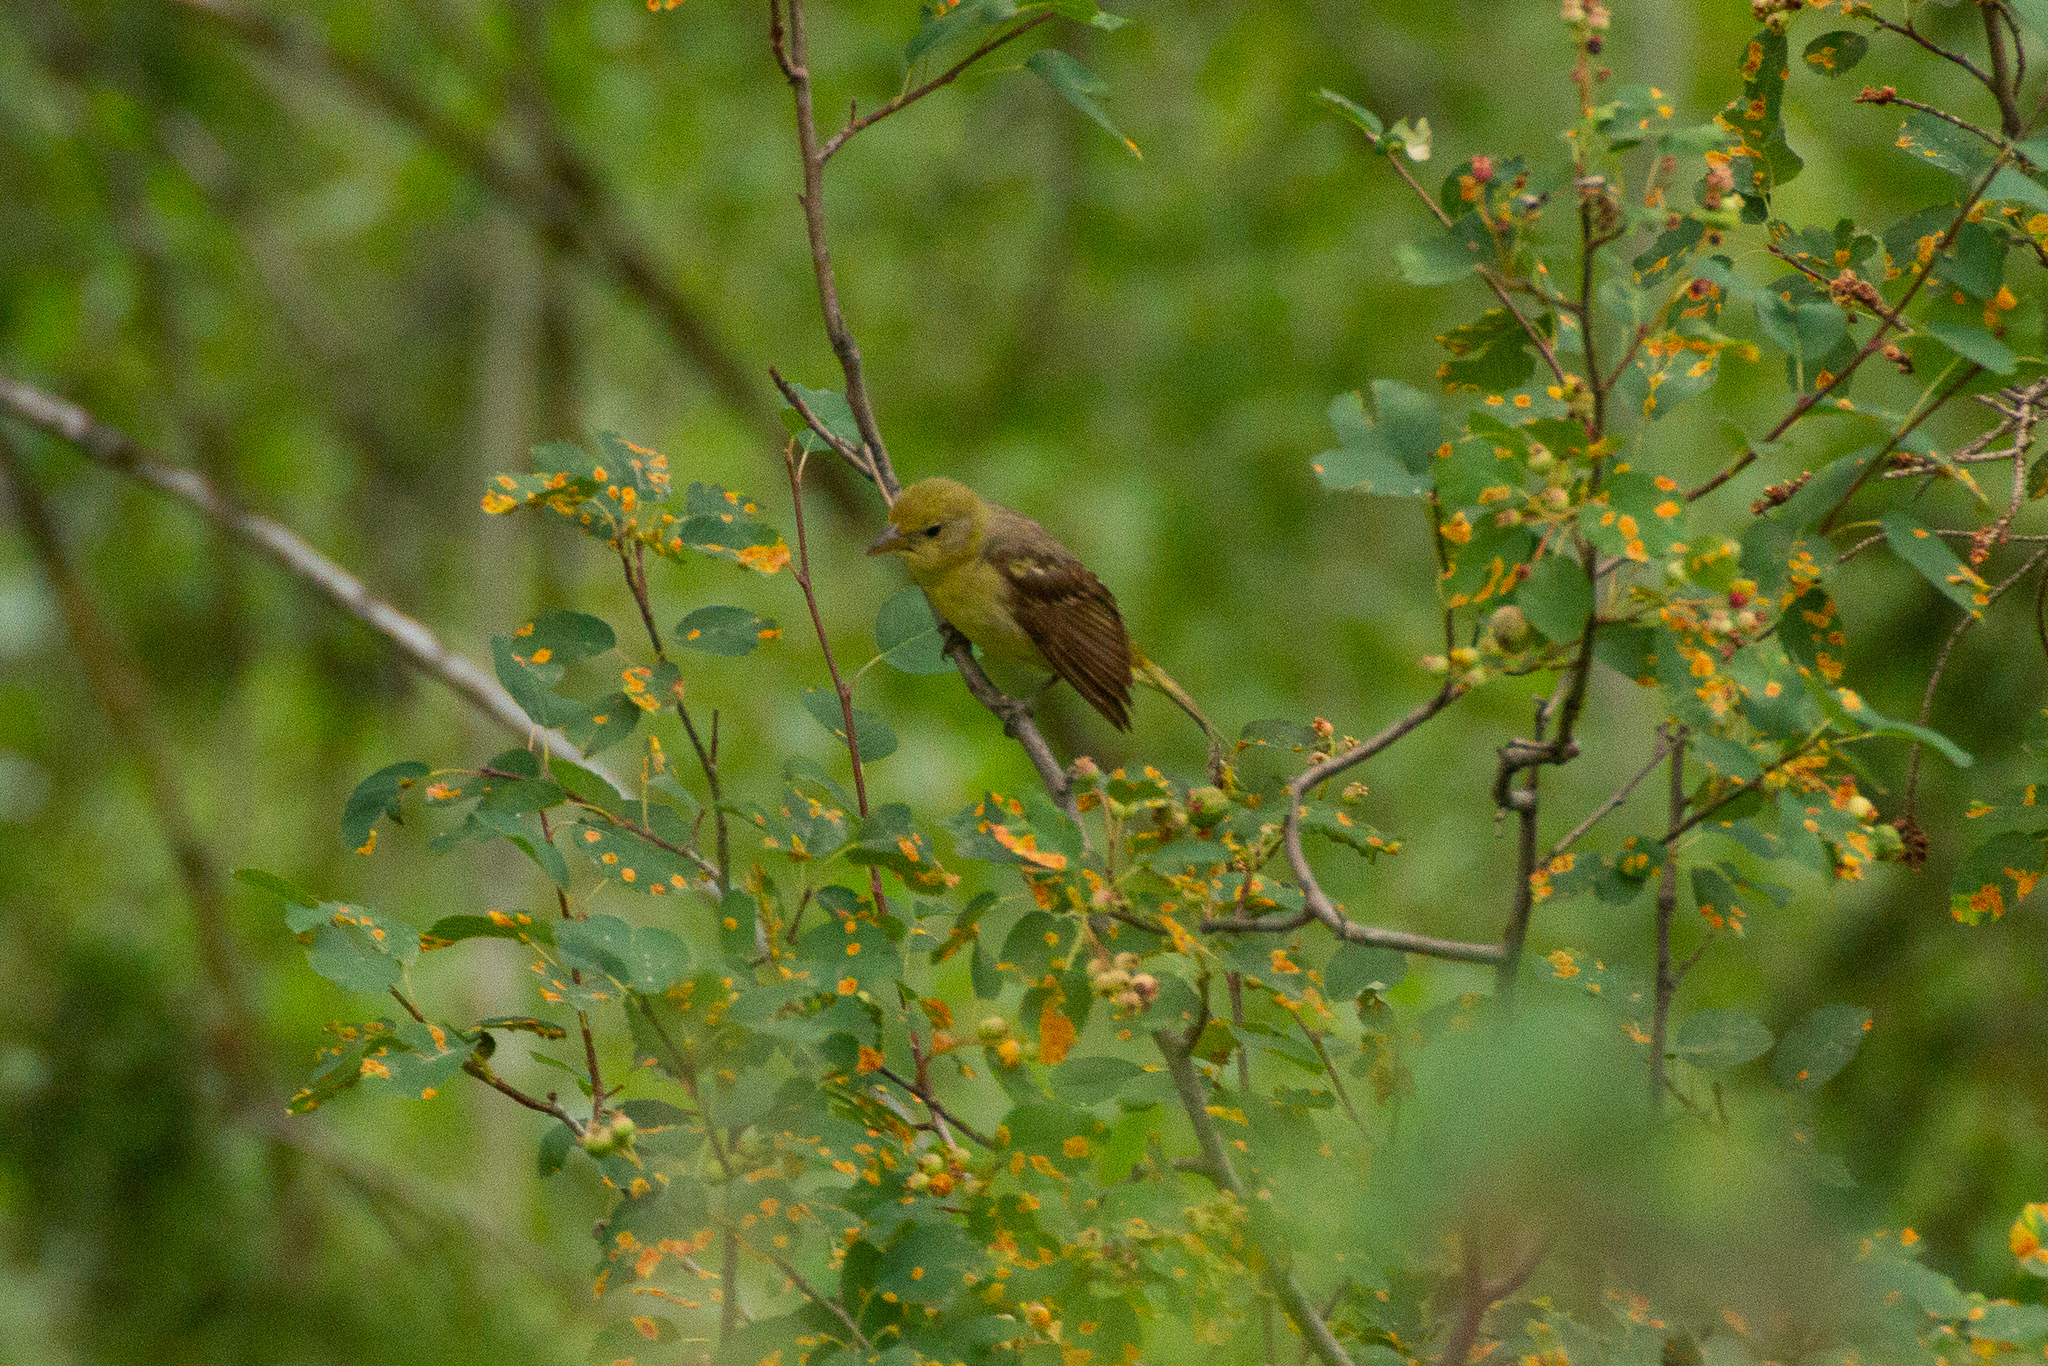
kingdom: Animalia
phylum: Chordata
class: Aves
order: Passeriformes
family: Cardinalidae
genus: Piranga
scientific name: Piranga ludoviciana
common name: Western tanager
